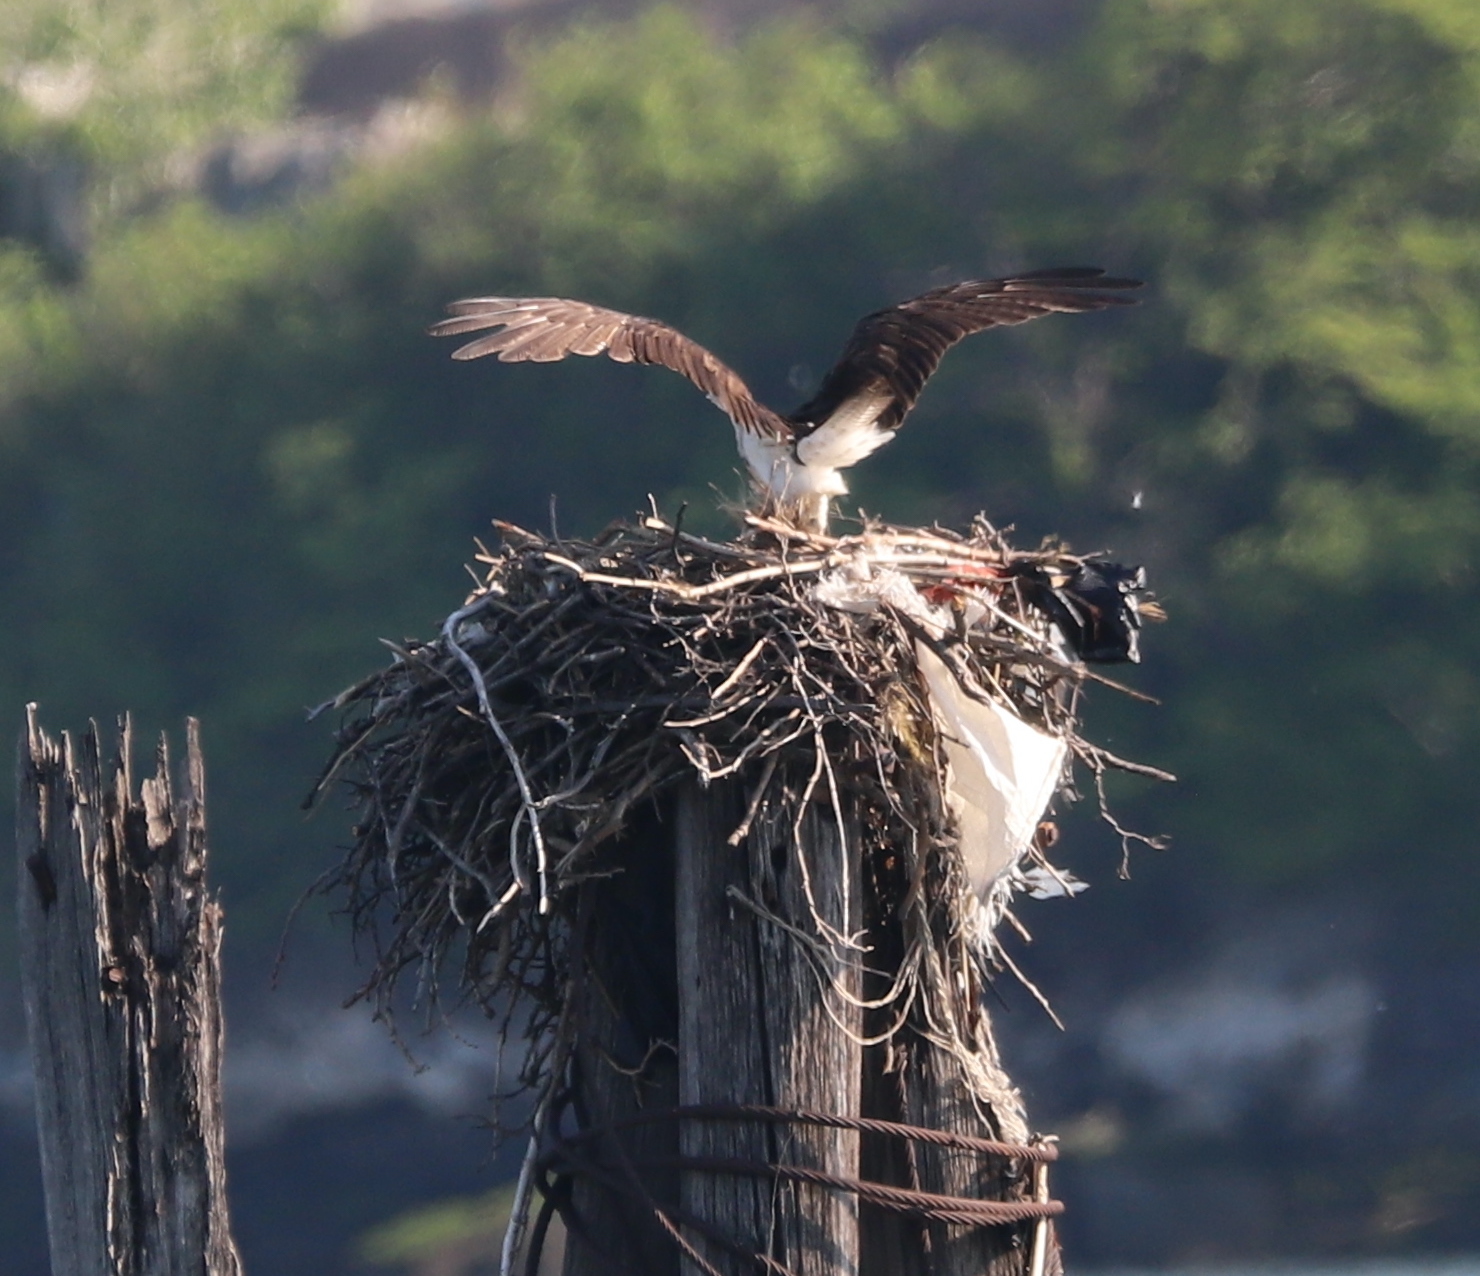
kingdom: Animalia
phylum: Chordata
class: Aves
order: Accipitriformes
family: Pandionidae
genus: Pandion
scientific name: Pandion haliaetus
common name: Osprey
